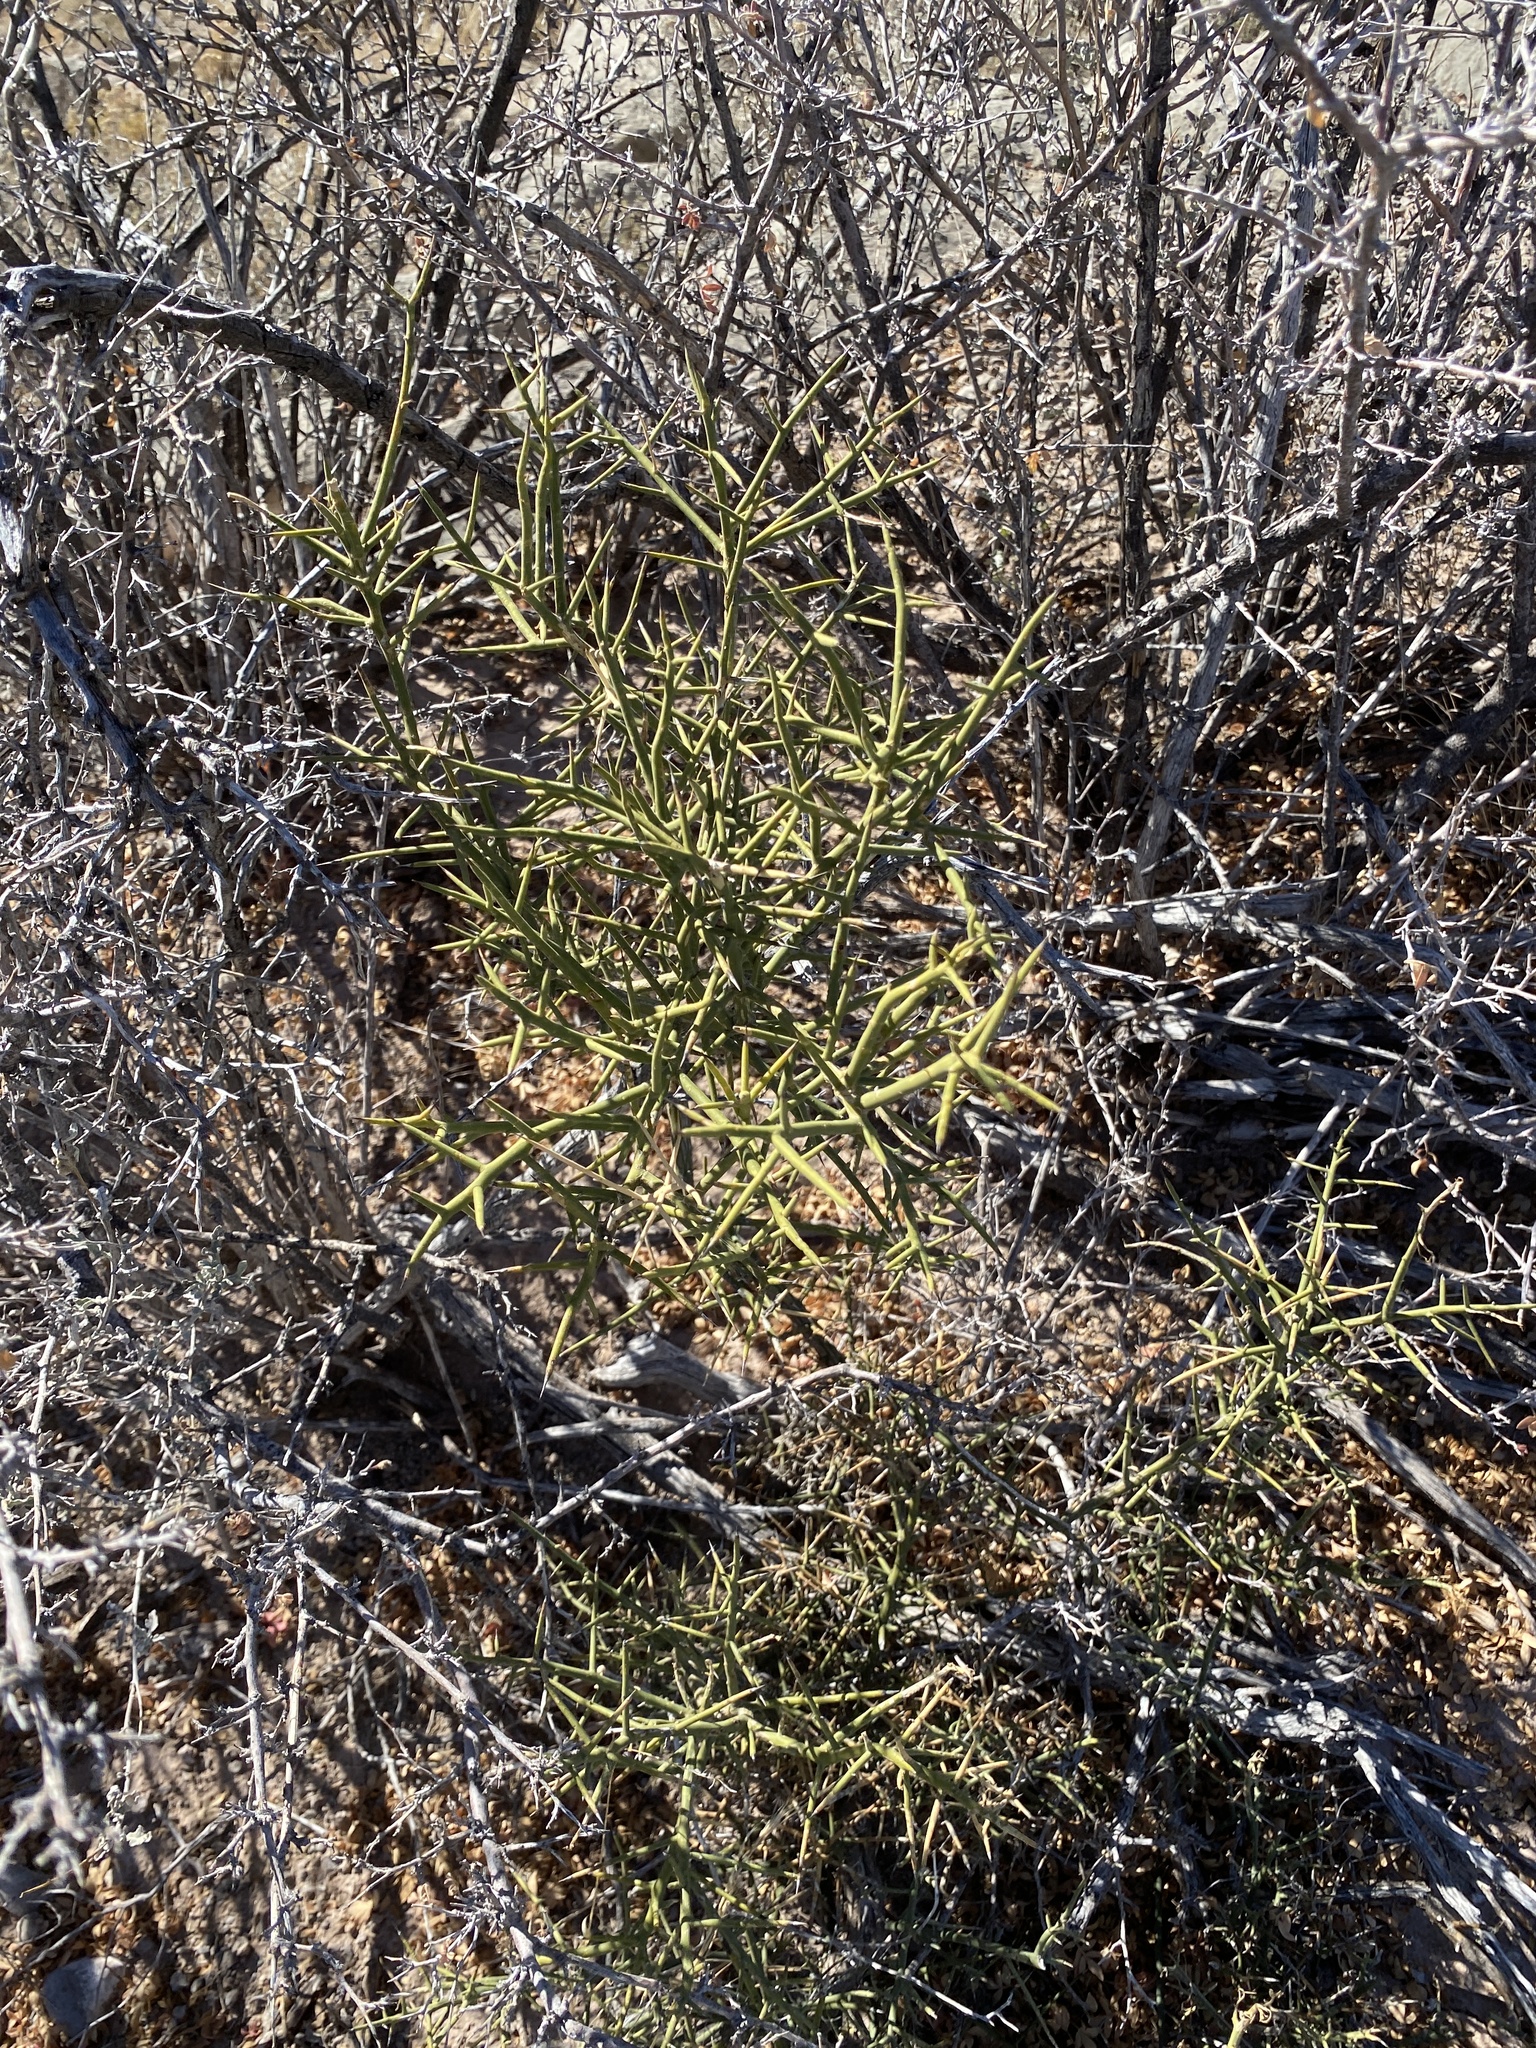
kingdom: Plantae
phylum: Tracheophyta
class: Magnoliopsida
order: Brassicales
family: Koeberliniaceae
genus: Koeberlinia
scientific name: Koeberlinia spinosa
